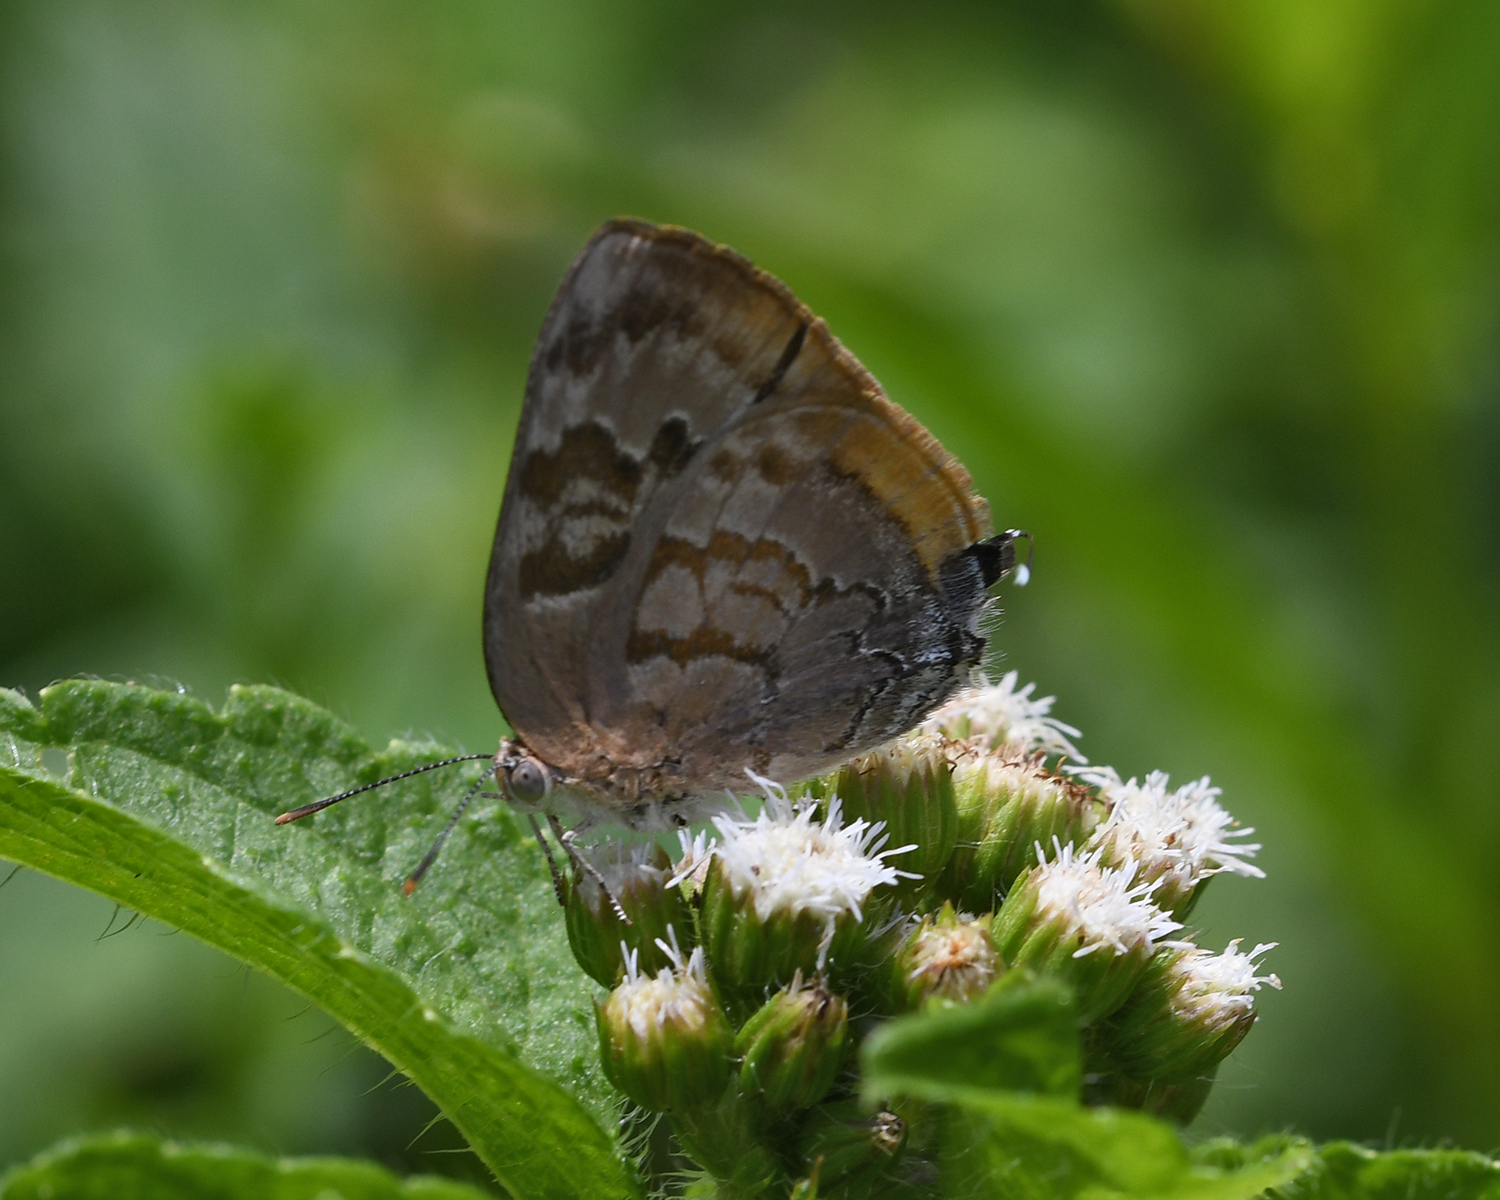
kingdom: Animalia
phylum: Arthropoda
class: Insecta
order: Lepidoptera
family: Lycaenidae
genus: Rekoa
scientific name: Rekoa palegon
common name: Gold-bordered hairstreak
